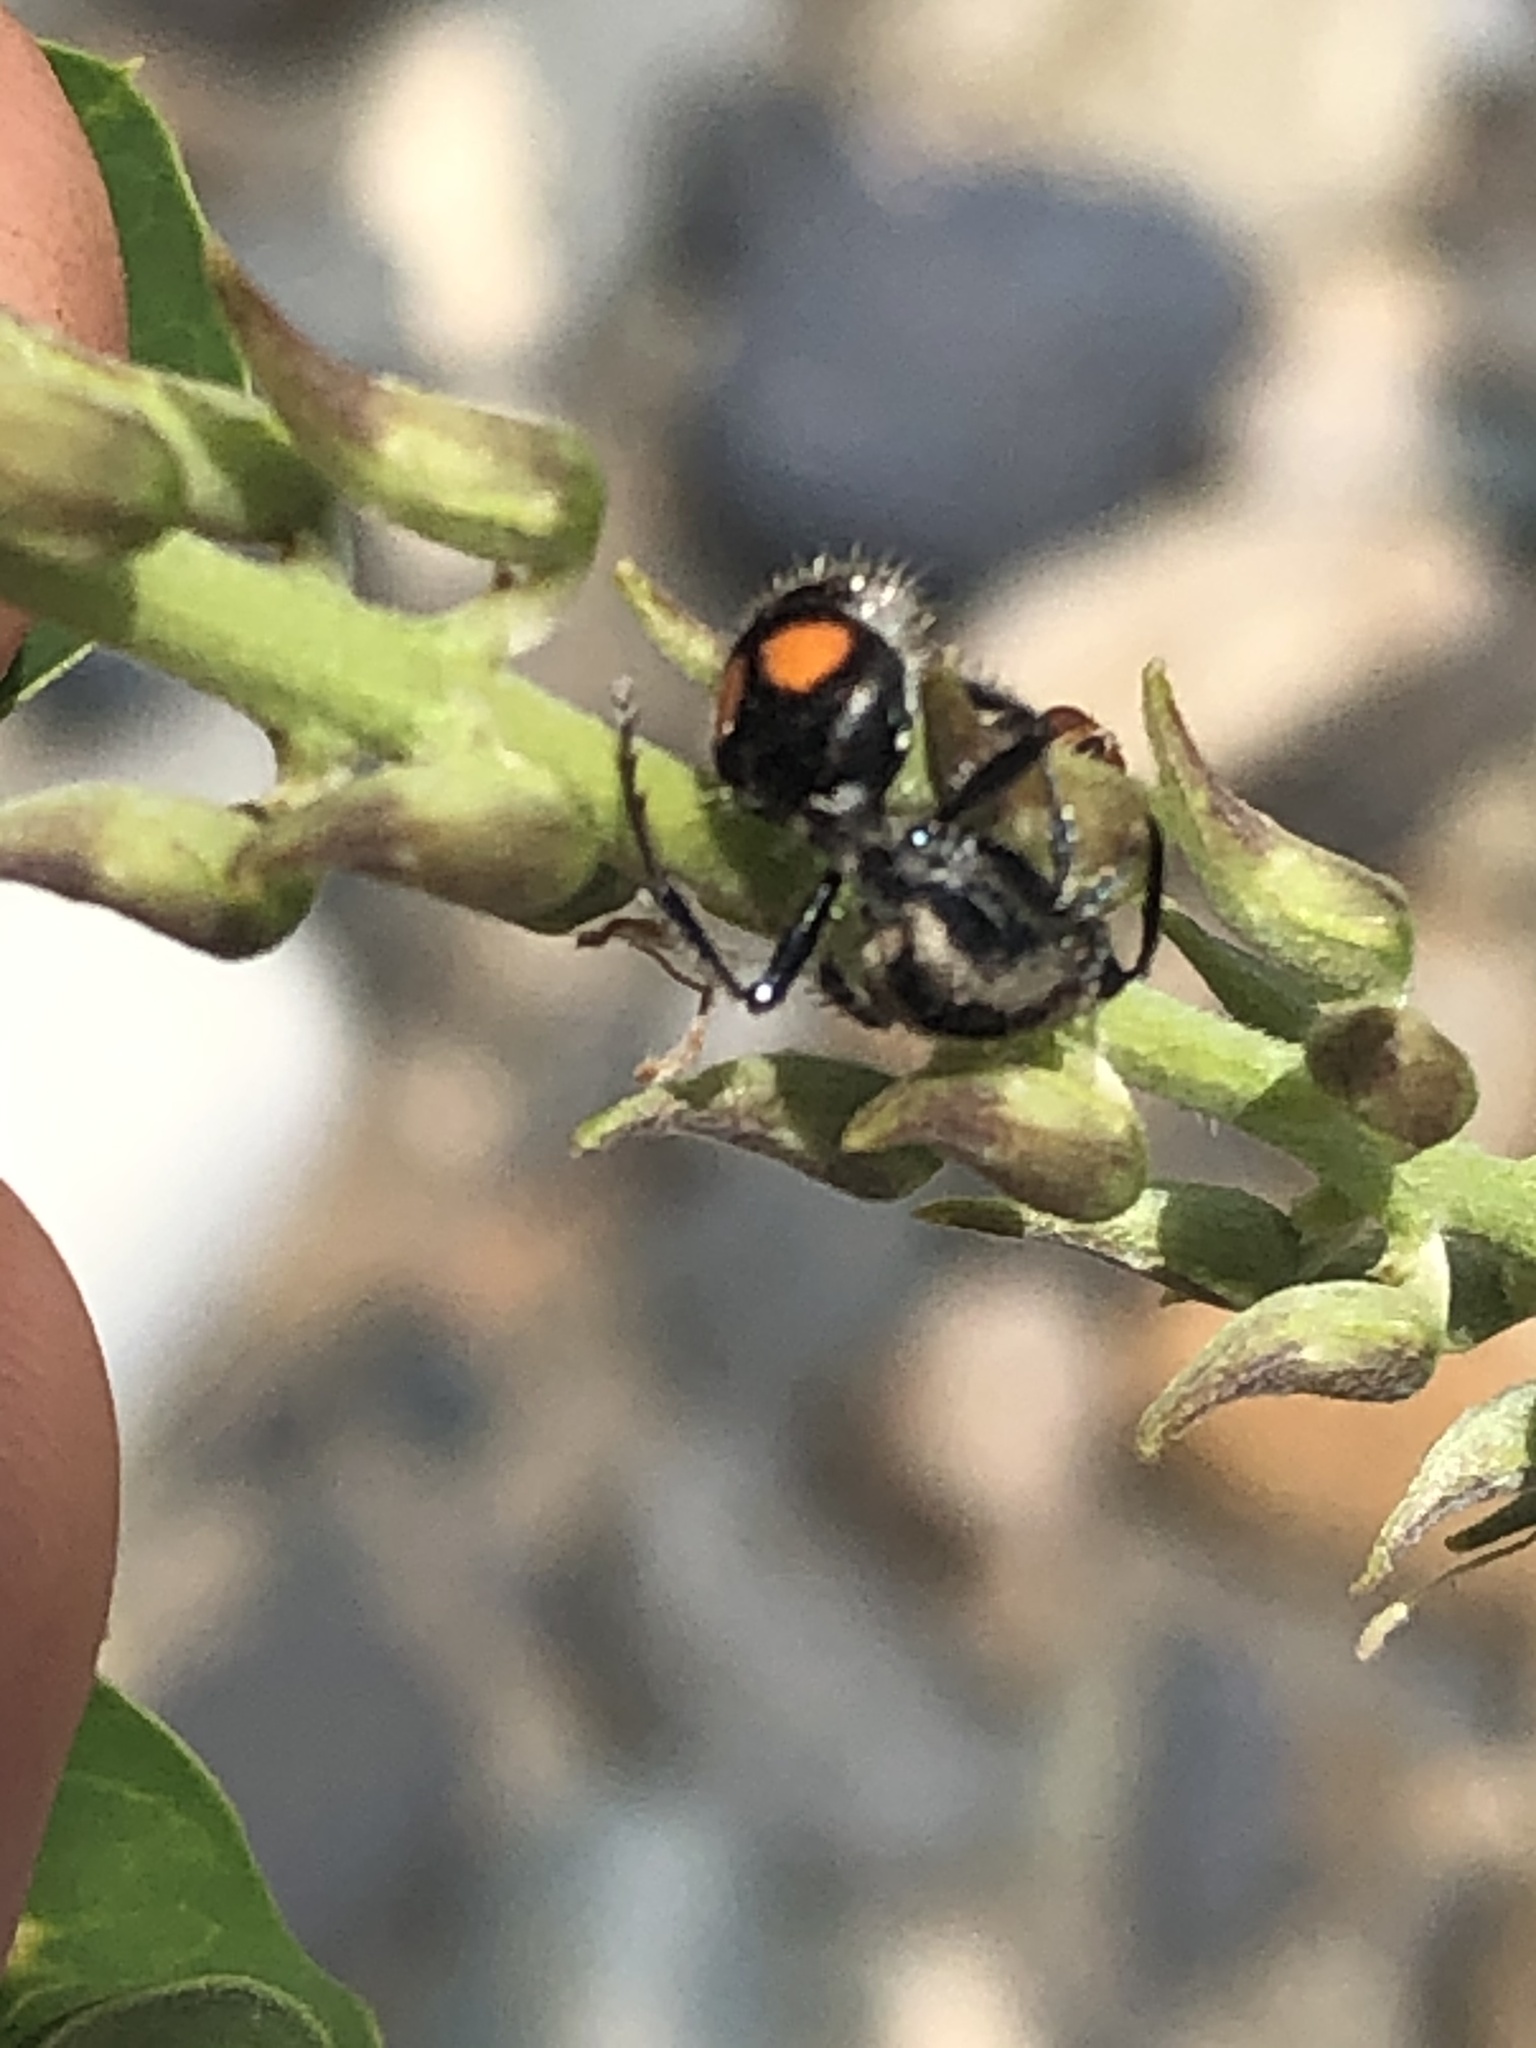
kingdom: Animalia
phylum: Arthropoda
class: Insecta
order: Hymenoptera
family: Mutillidae
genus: Mutilla
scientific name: Mutilla americana
